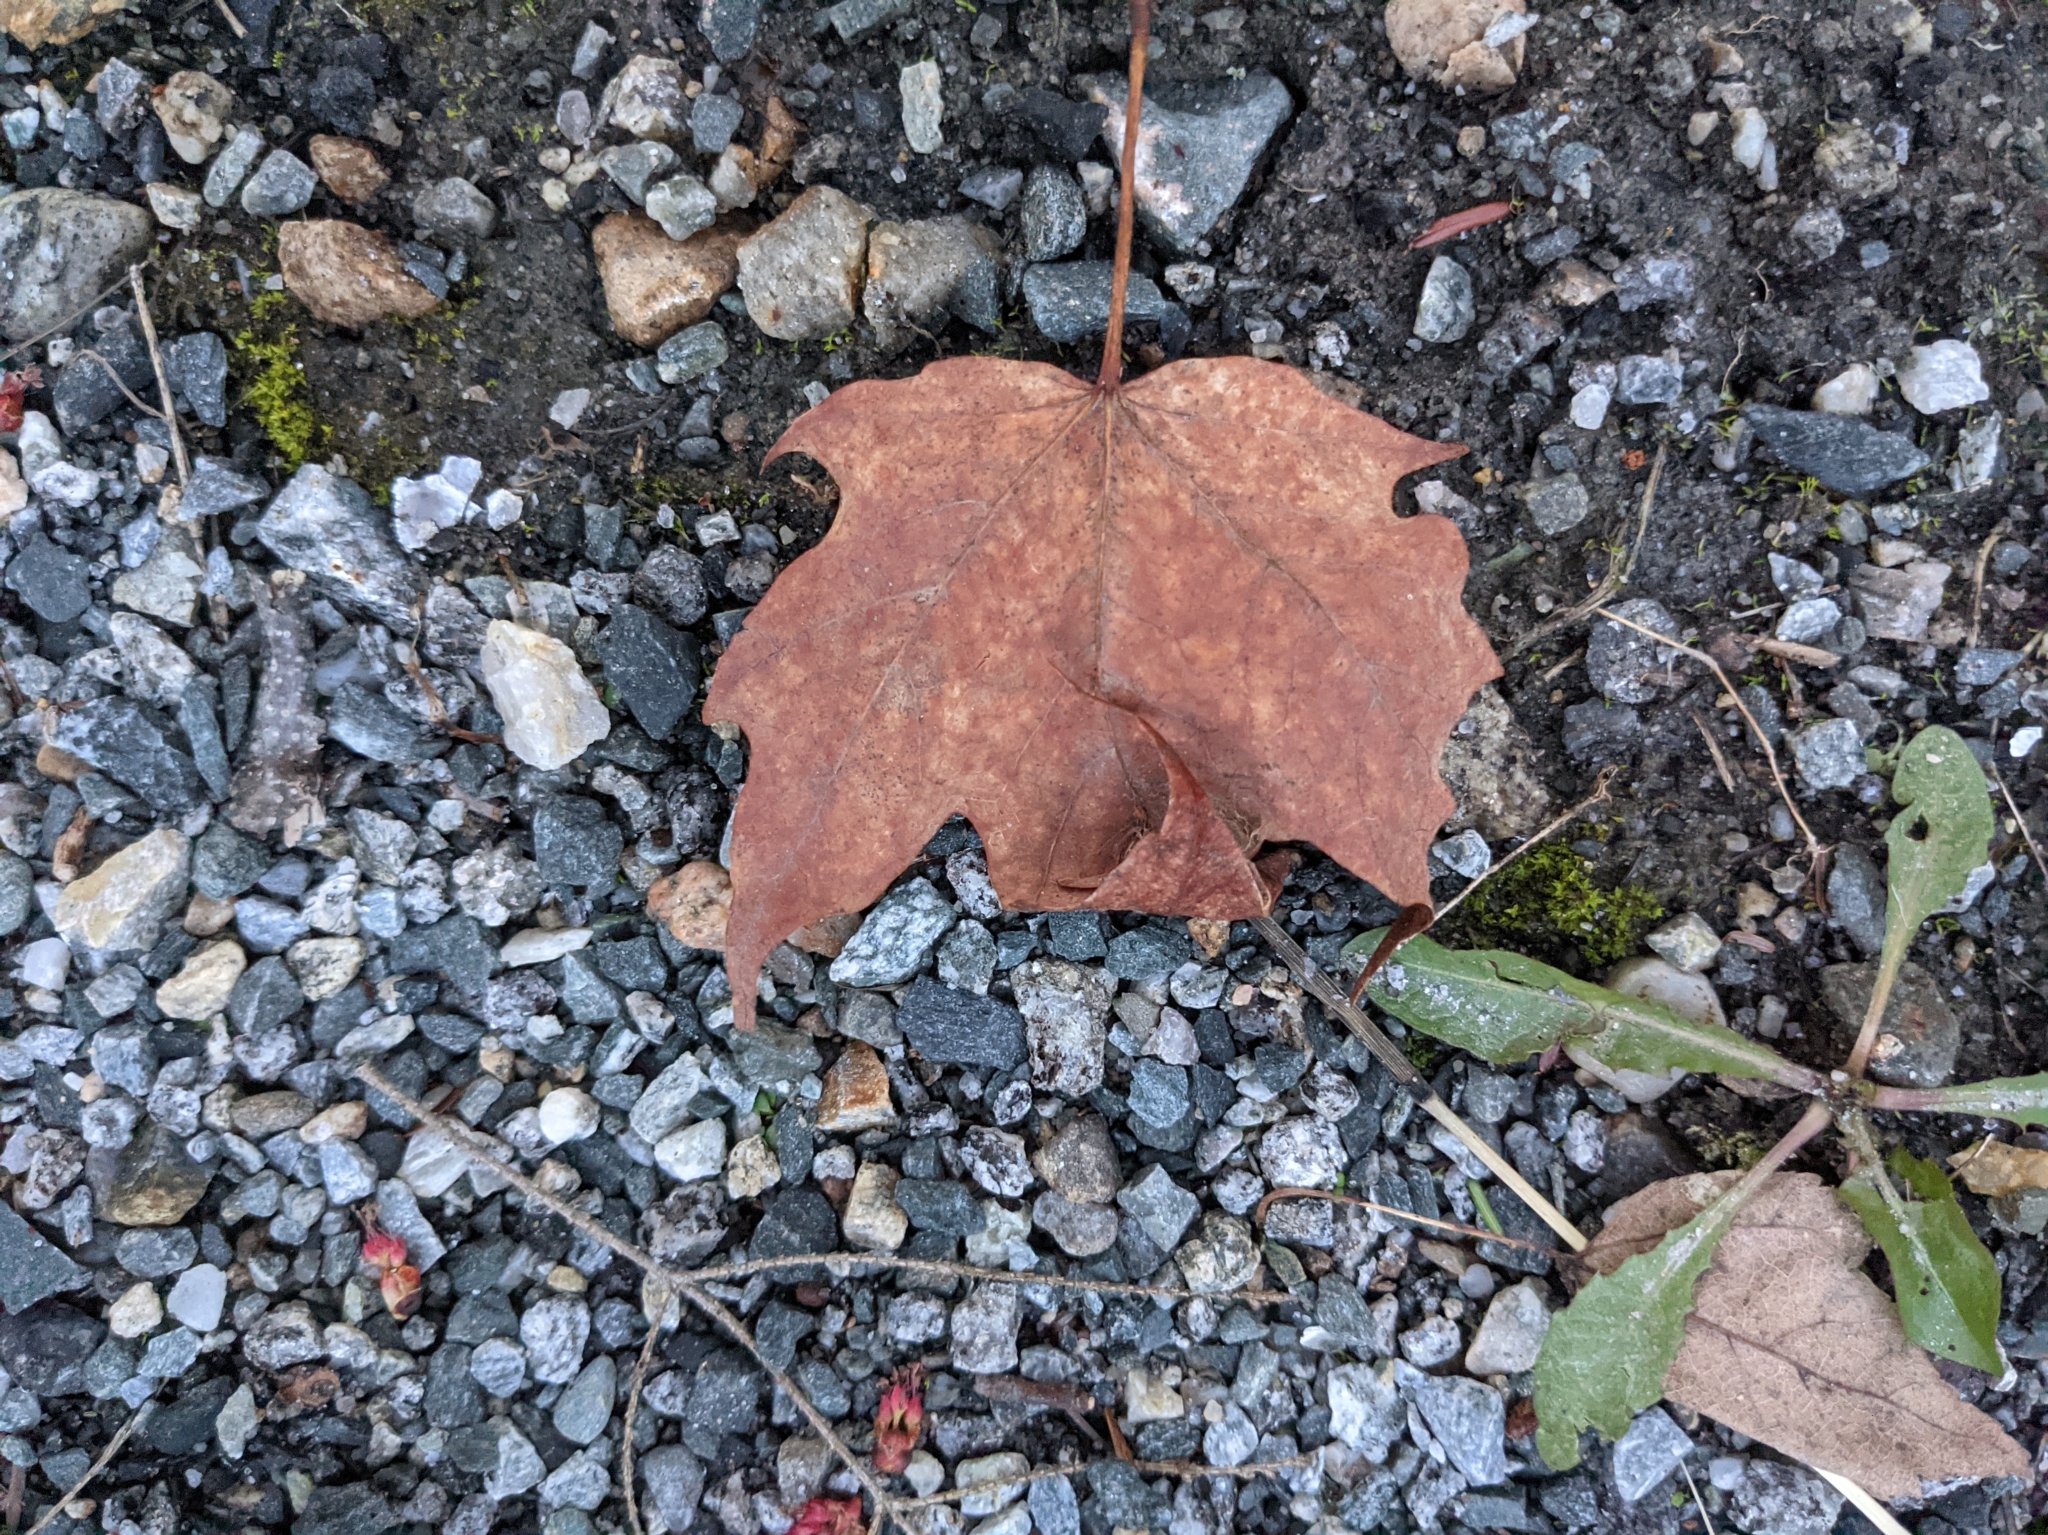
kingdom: Plantae
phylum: Tracheophyta
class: Magnoliopsida
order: Sapindales
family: Sapindaceae
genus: Acer
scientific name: Acer saccharum
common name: Sugar maple
